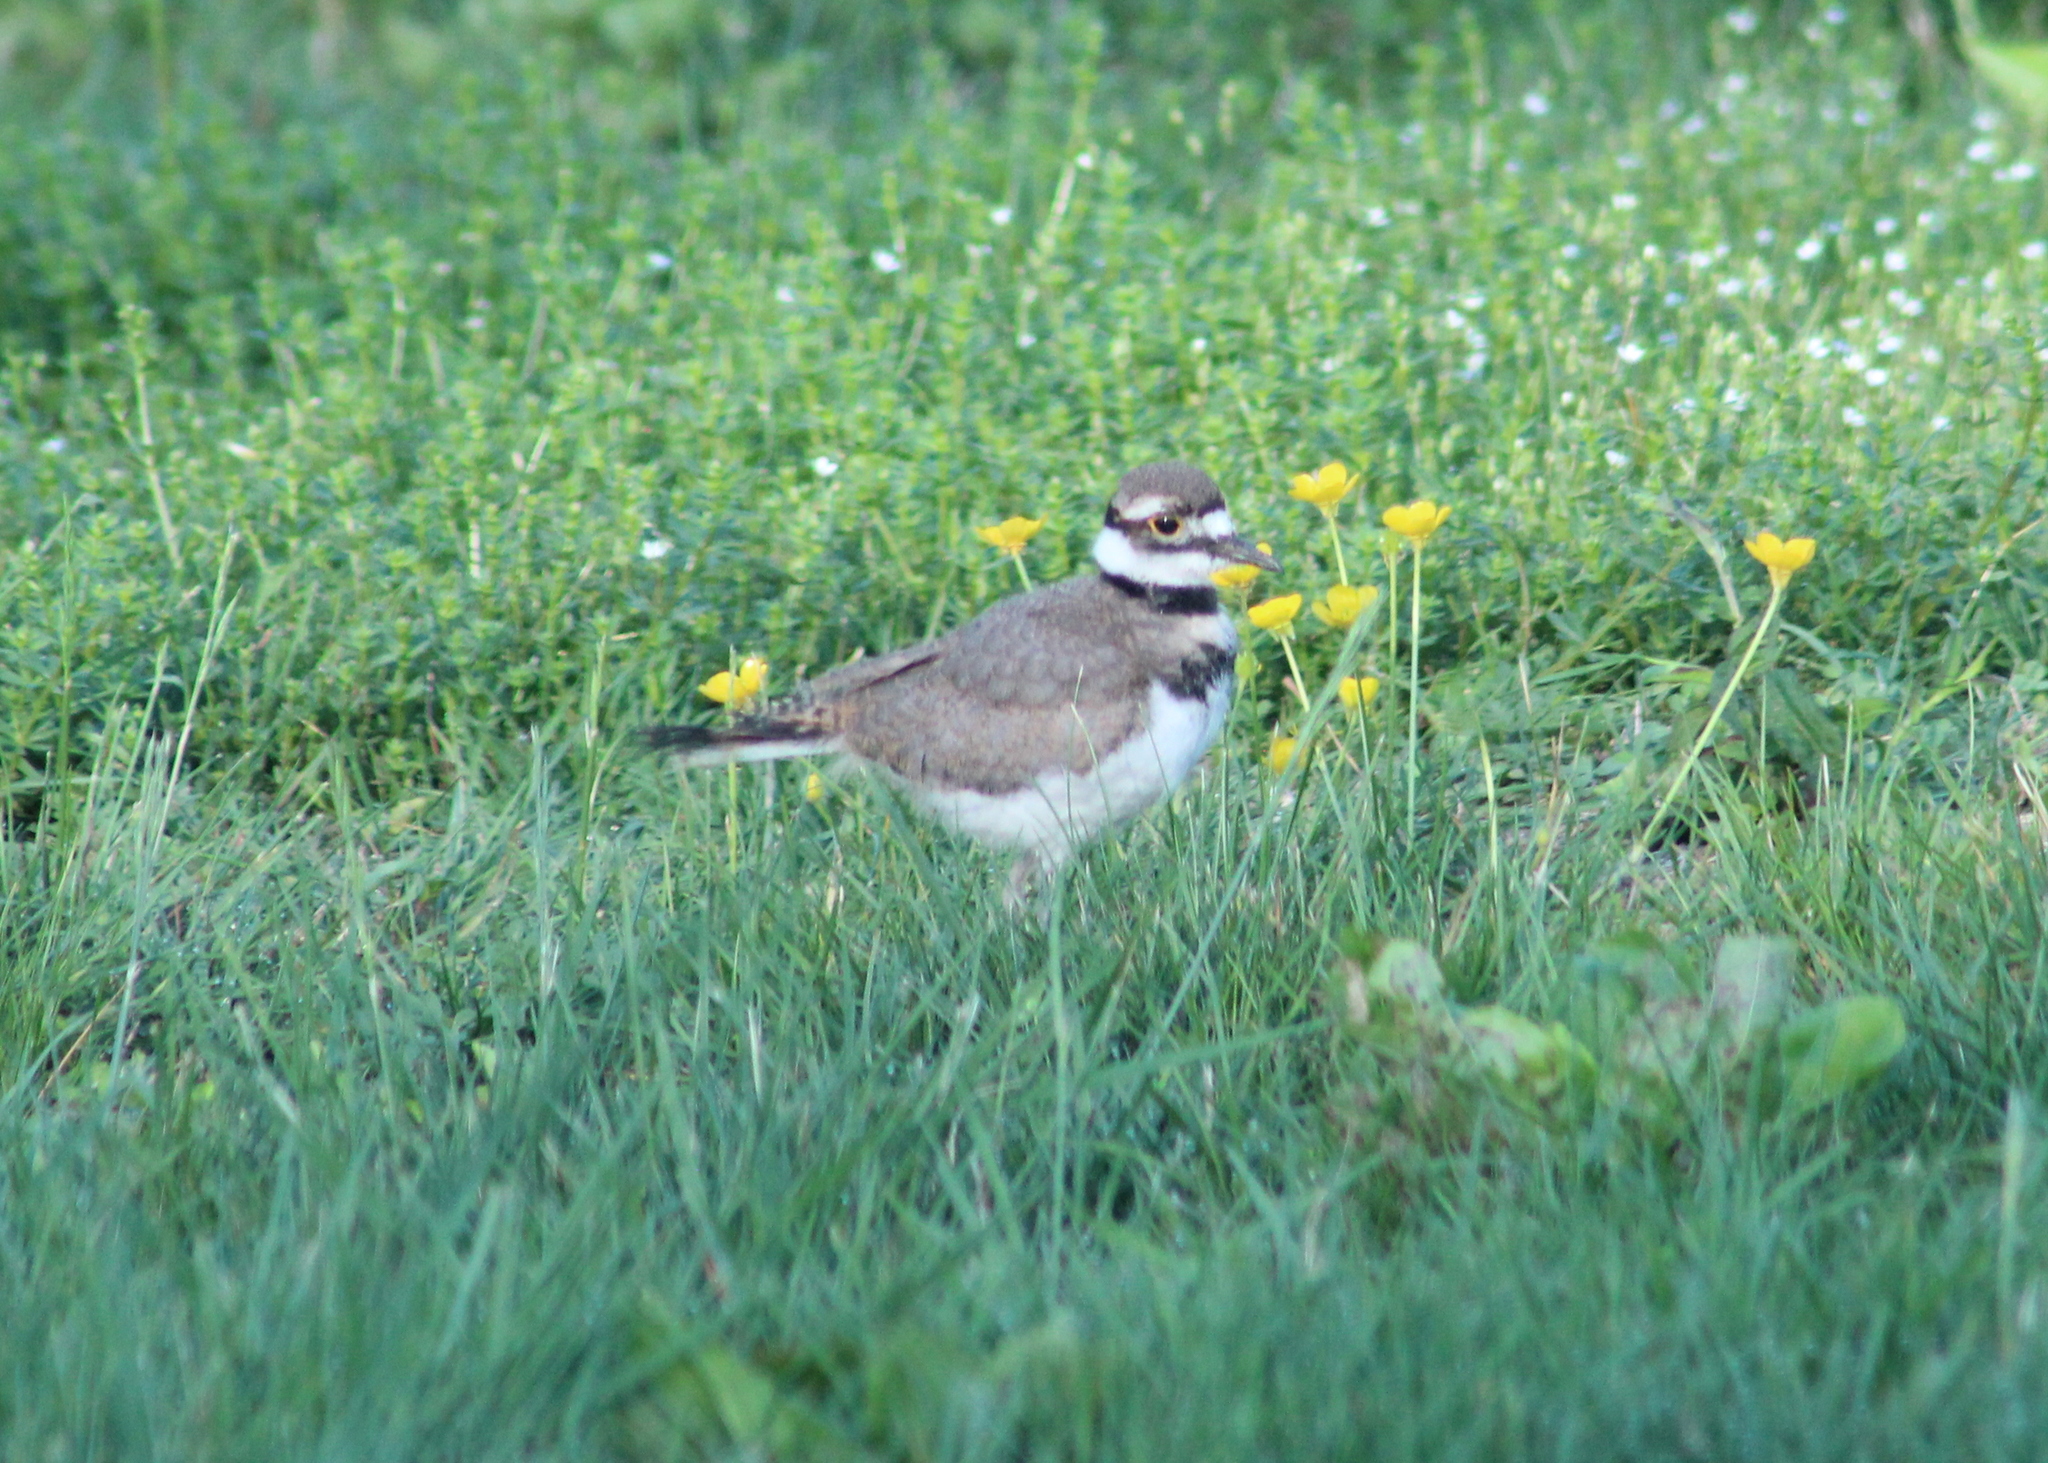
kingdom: Animalia
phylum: Chordata
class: Aves
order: Charadriiformes
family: Charadriidae
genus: Charadrius
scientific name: Charadrius vociferus
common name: Killdeer
